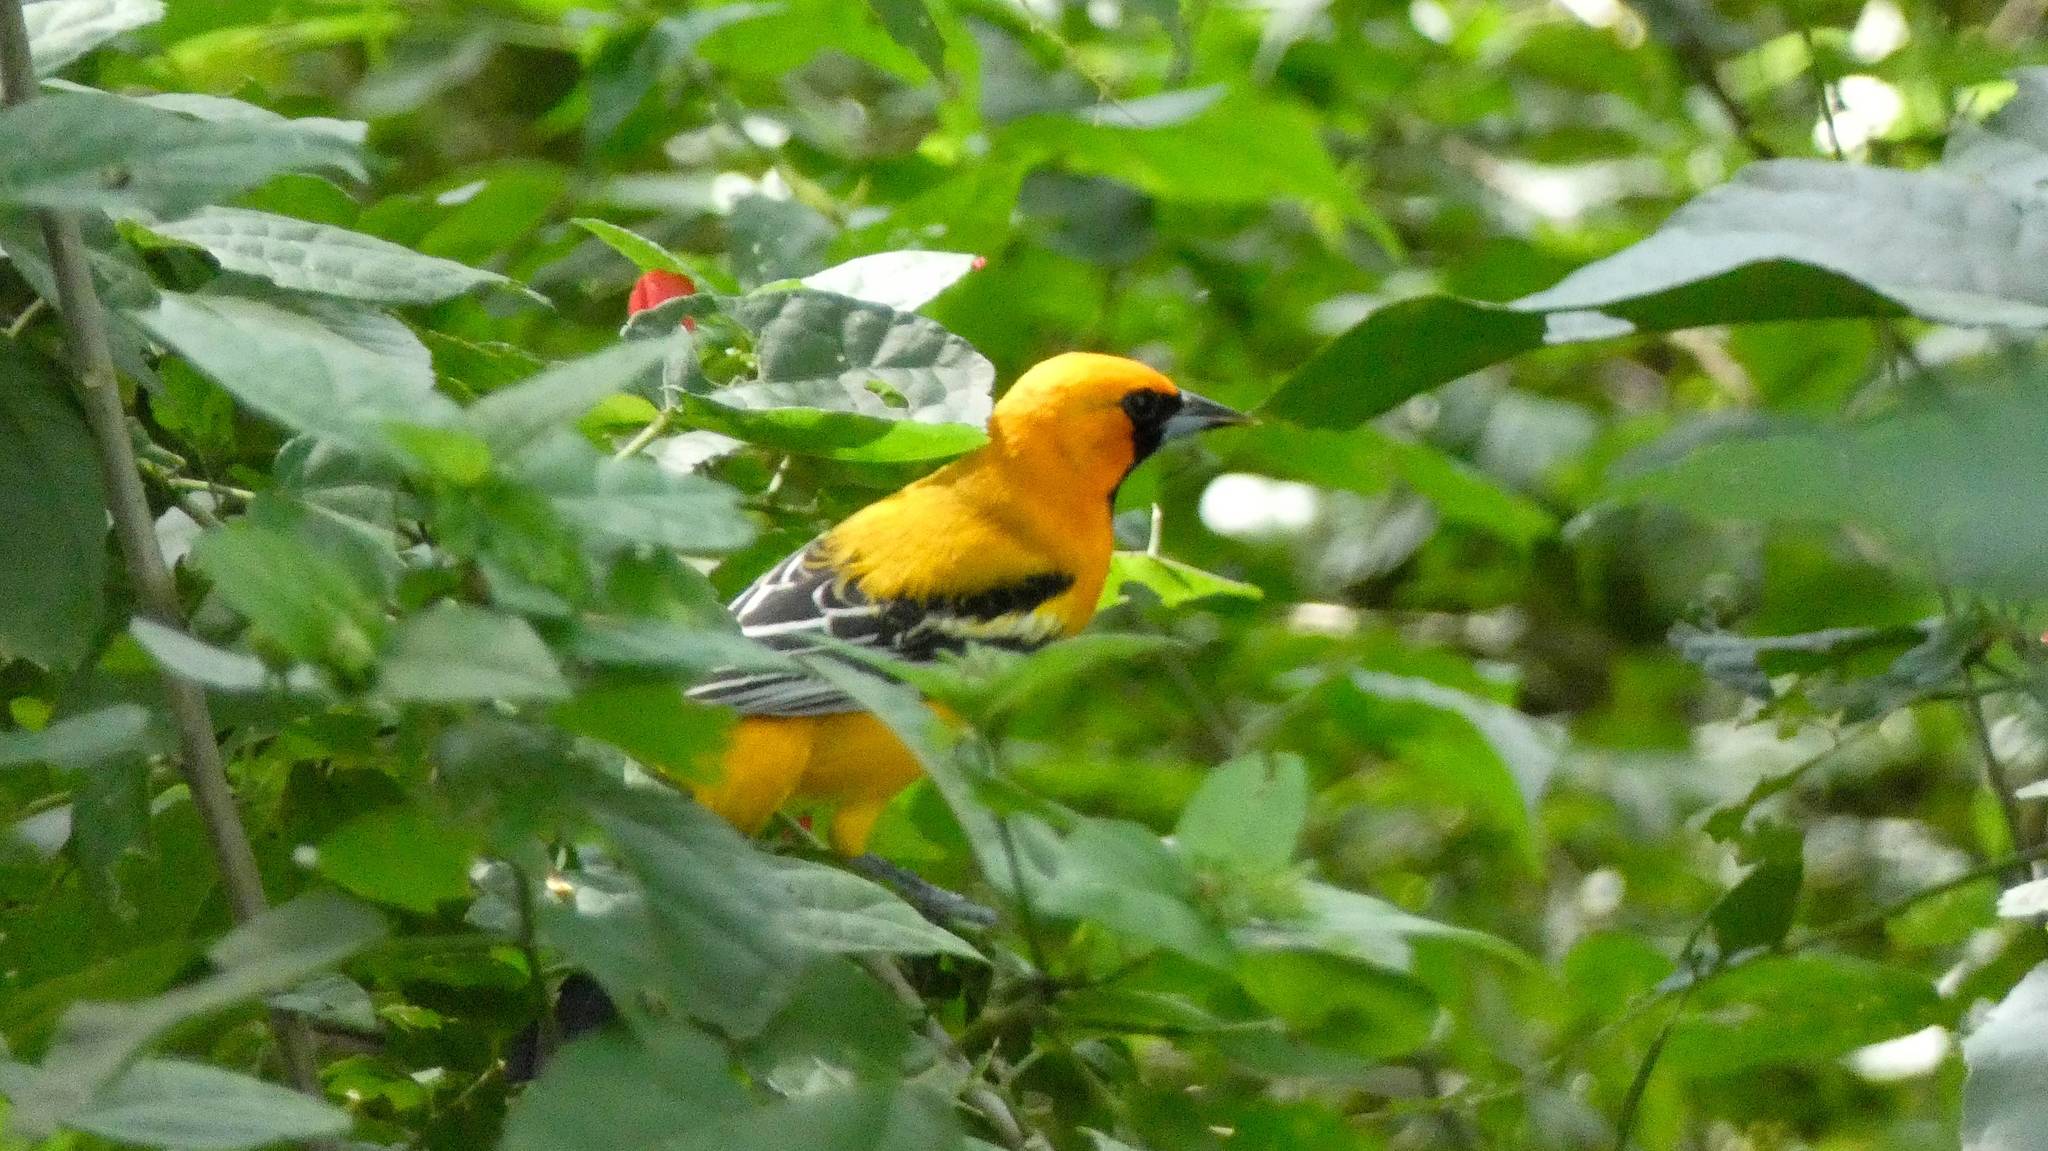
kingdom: Animalia
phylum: Chordata
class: Aves
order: Passeriformes
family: Icteridae
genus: Icterus
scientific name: Icterus auratus
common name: Orange oriole
